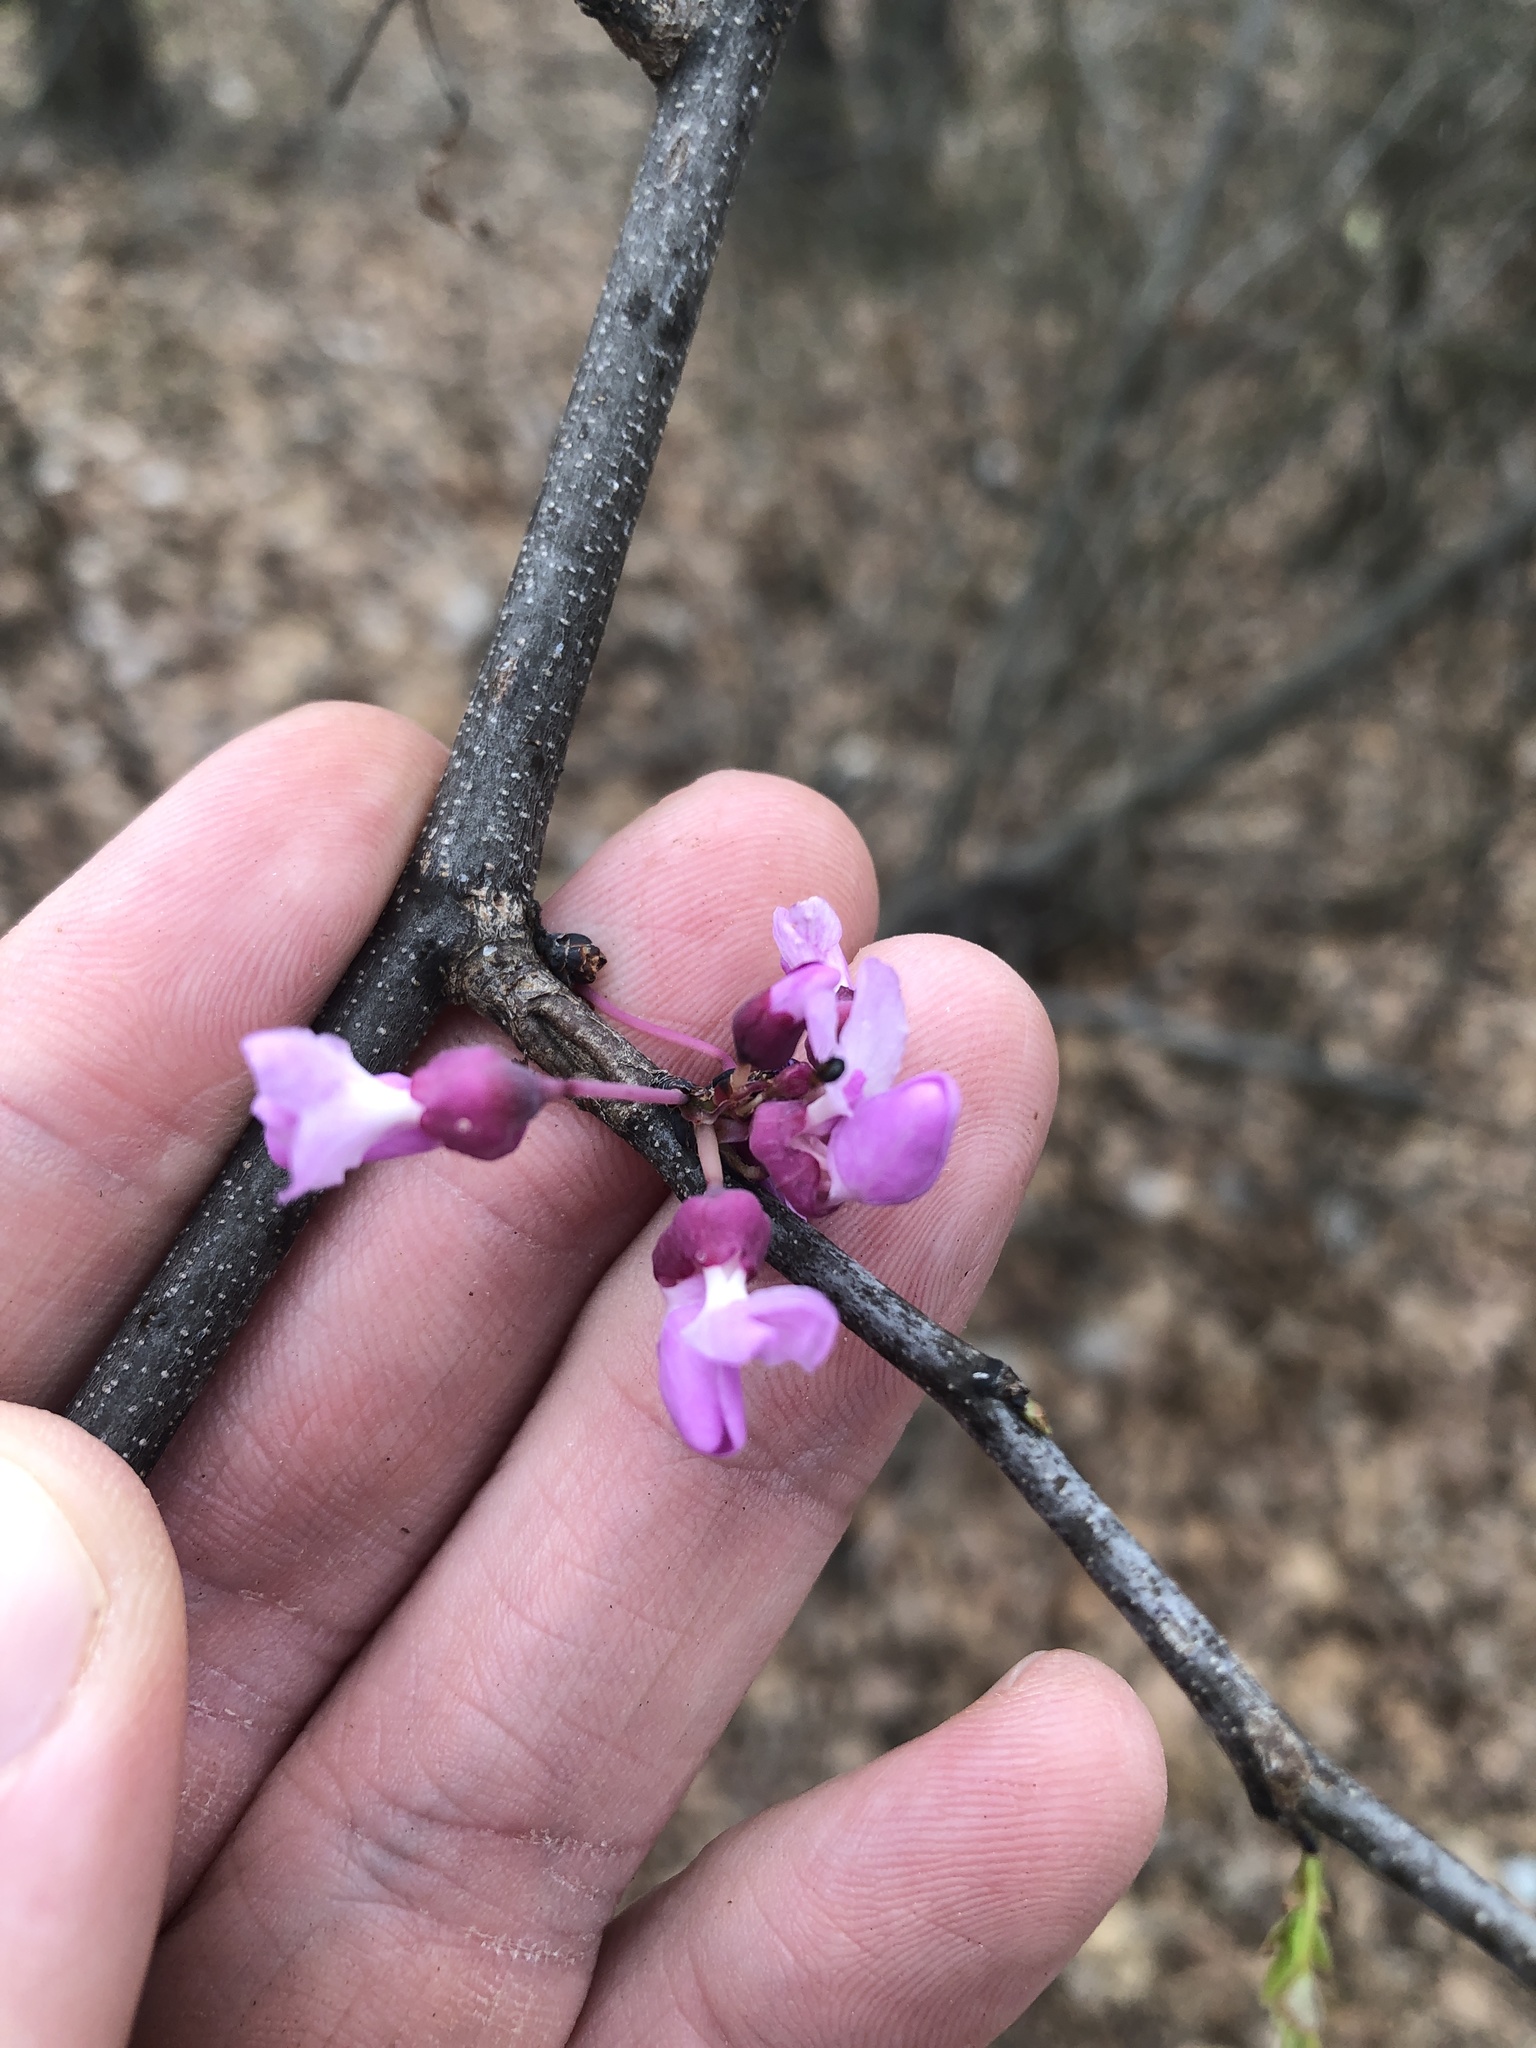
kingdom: Plantae
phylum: Tracheophyta
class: Magnoliopsida
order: Fabales
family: Fabaceae
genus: Cercis
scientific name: Cercis canadensis
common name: Eastern redbud
